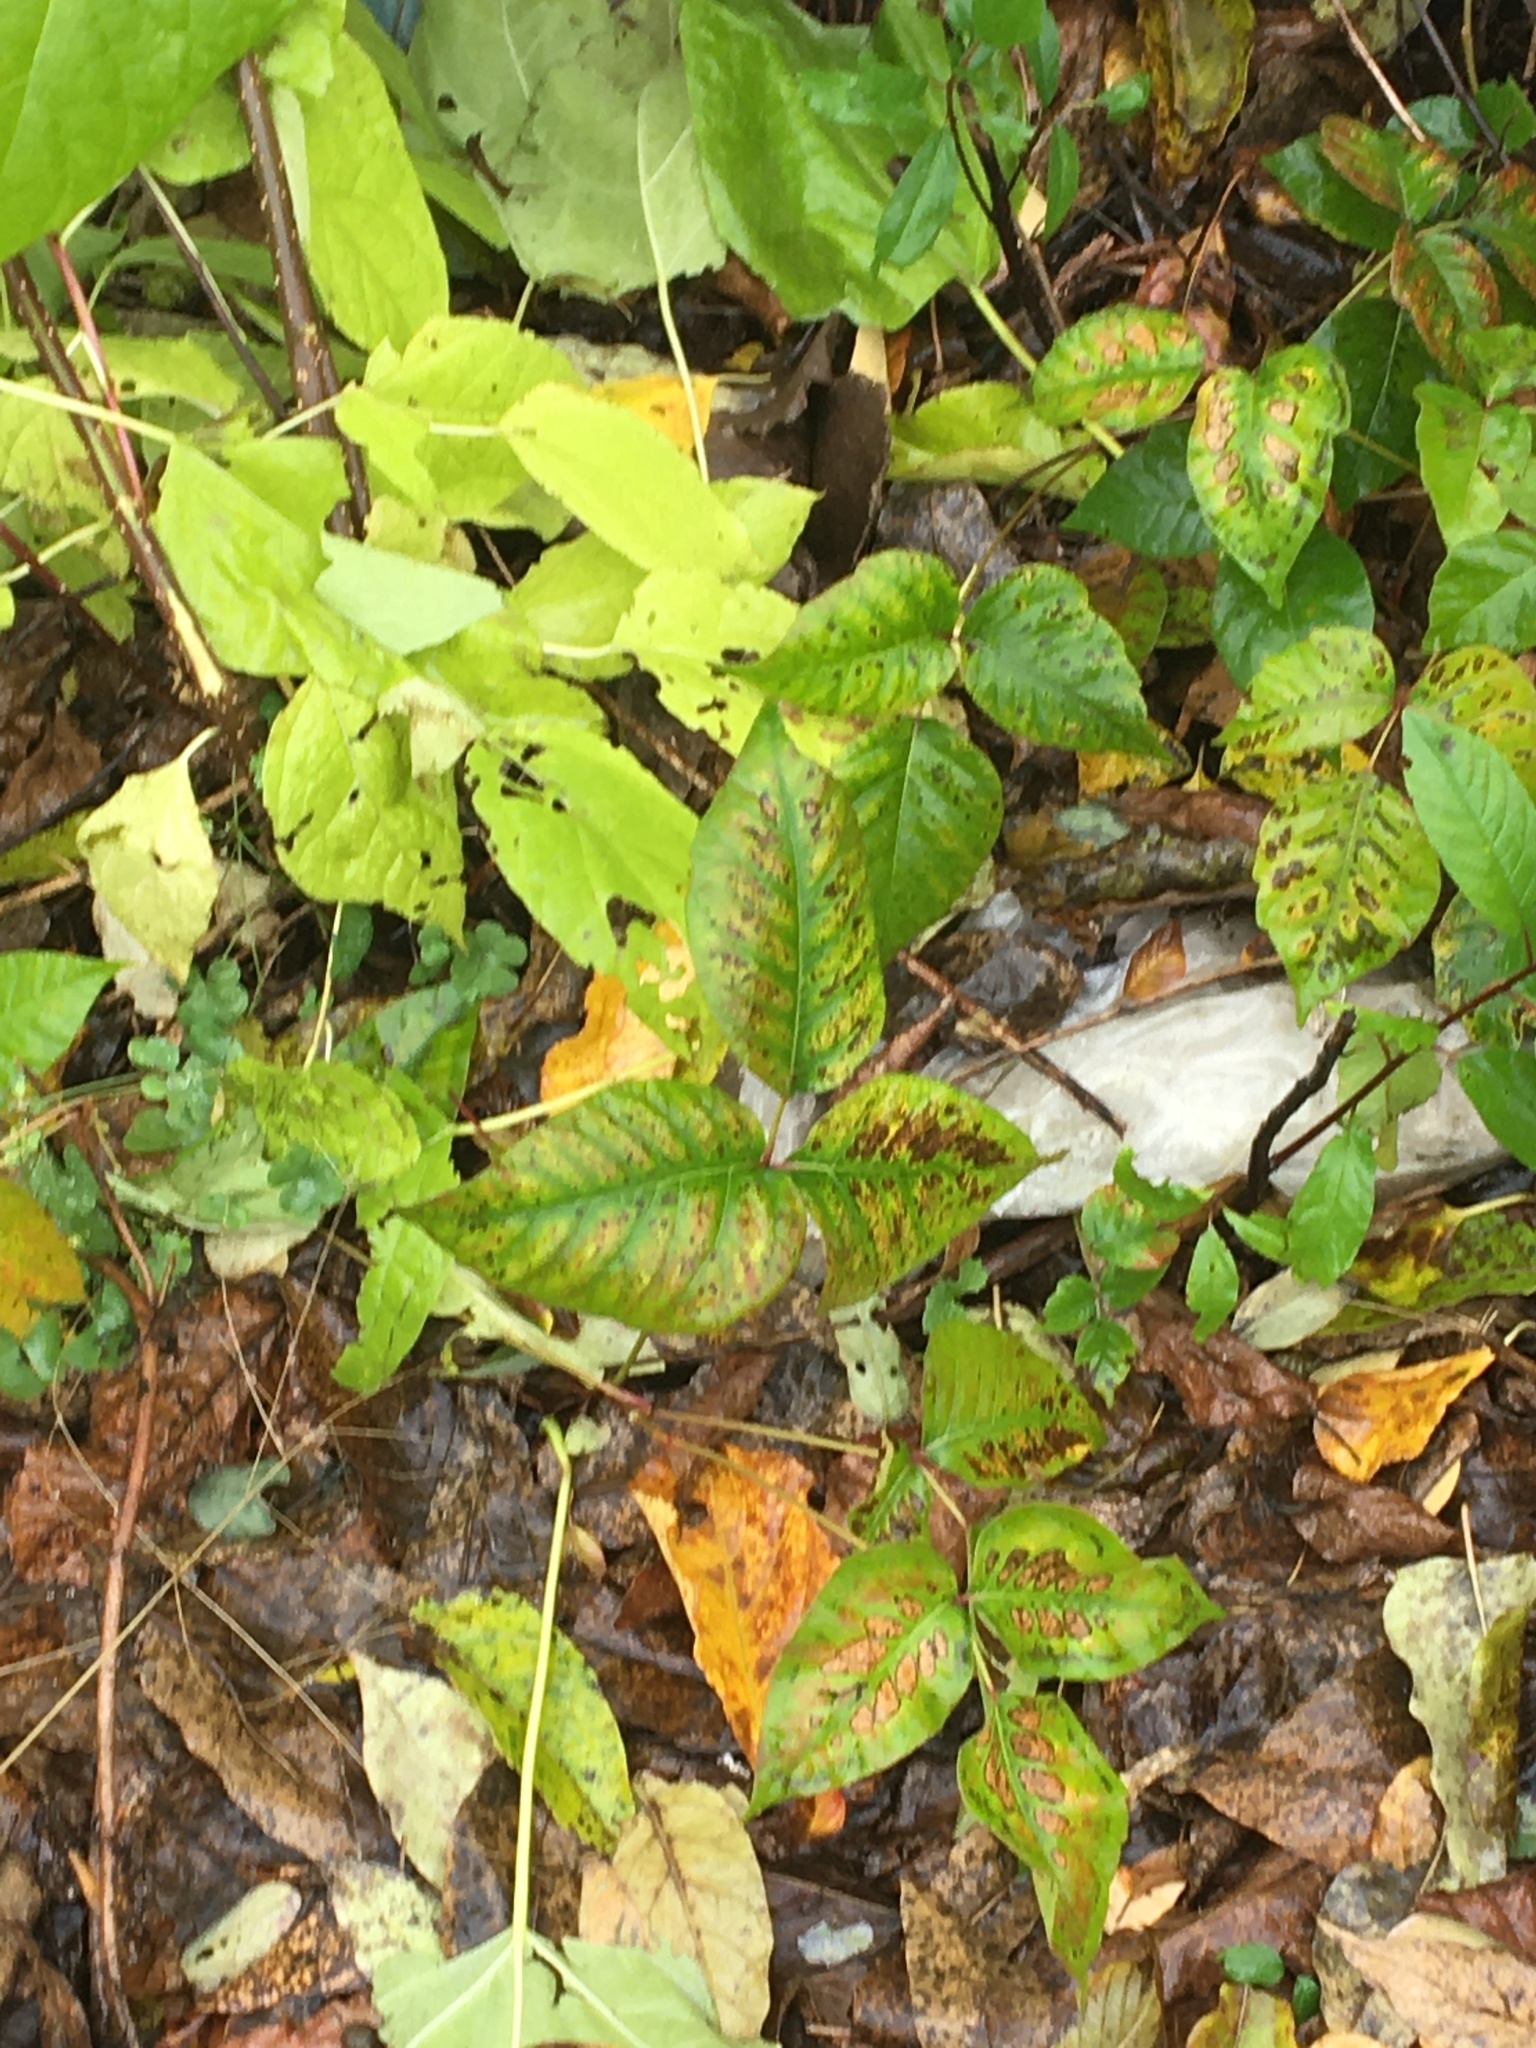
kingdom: Plantae
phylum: Tracheophyta
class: Magnoliopsida
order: Sapindales
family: Anacardiaceae
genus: Toxicodendron
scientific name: Toxicodendron radicans
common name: Poison ivy
